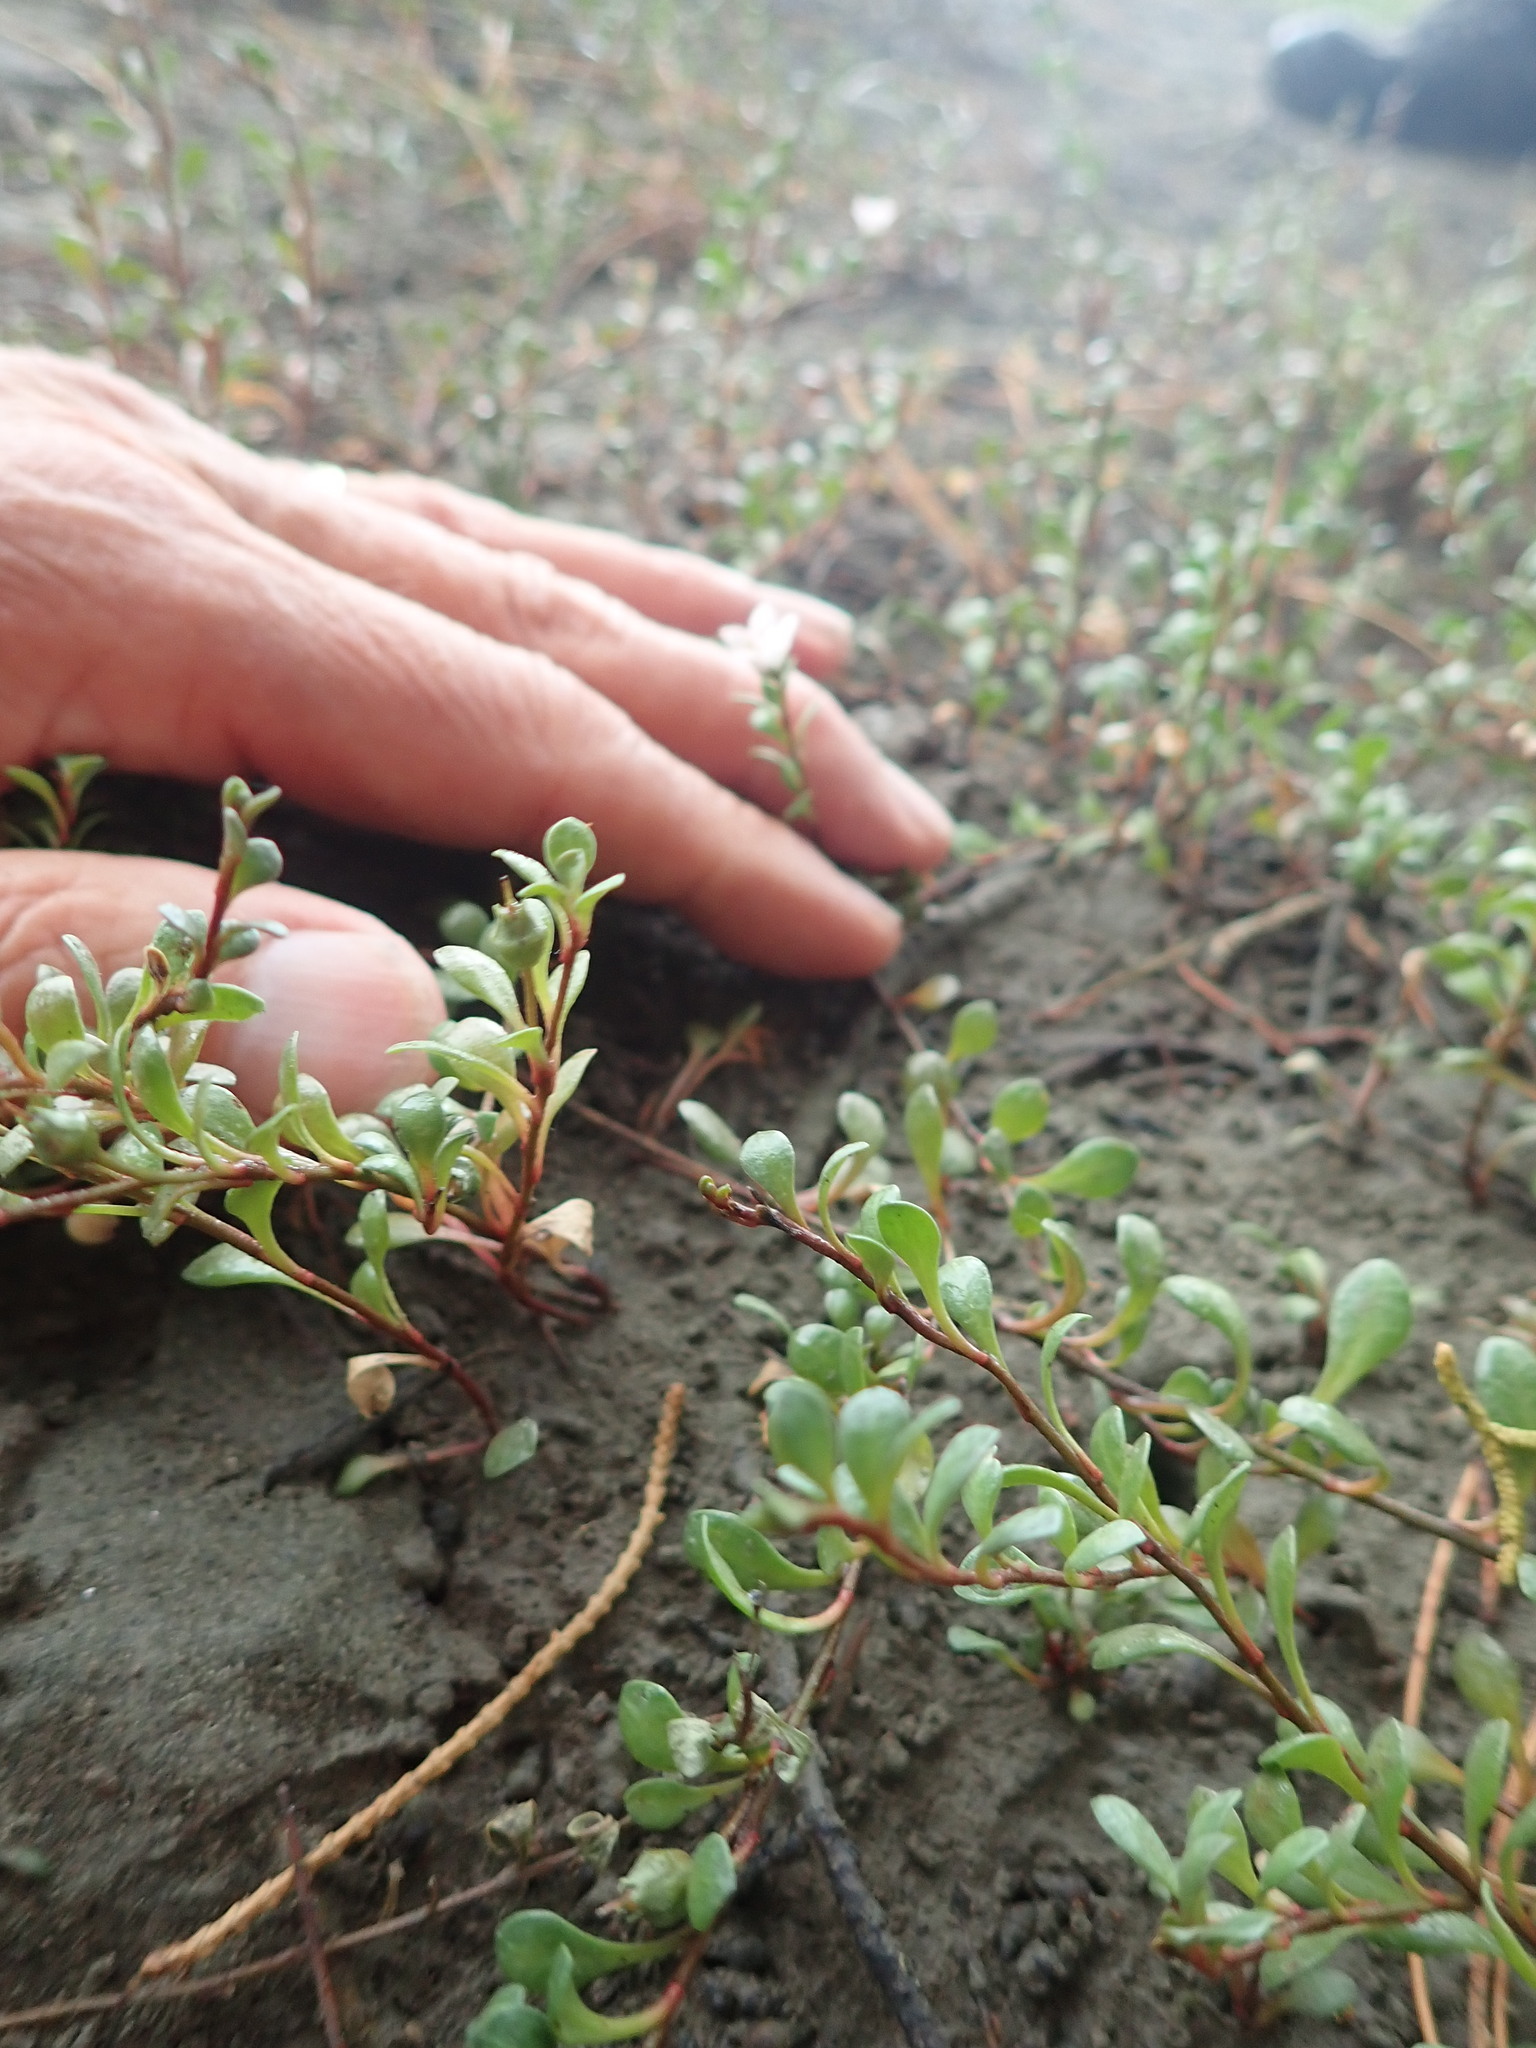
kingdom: Plantae
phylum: Tracheophyta
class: Magnoliopsida
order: Ericales
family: Primulaceae
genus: Samolus
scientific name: Samolus repens
